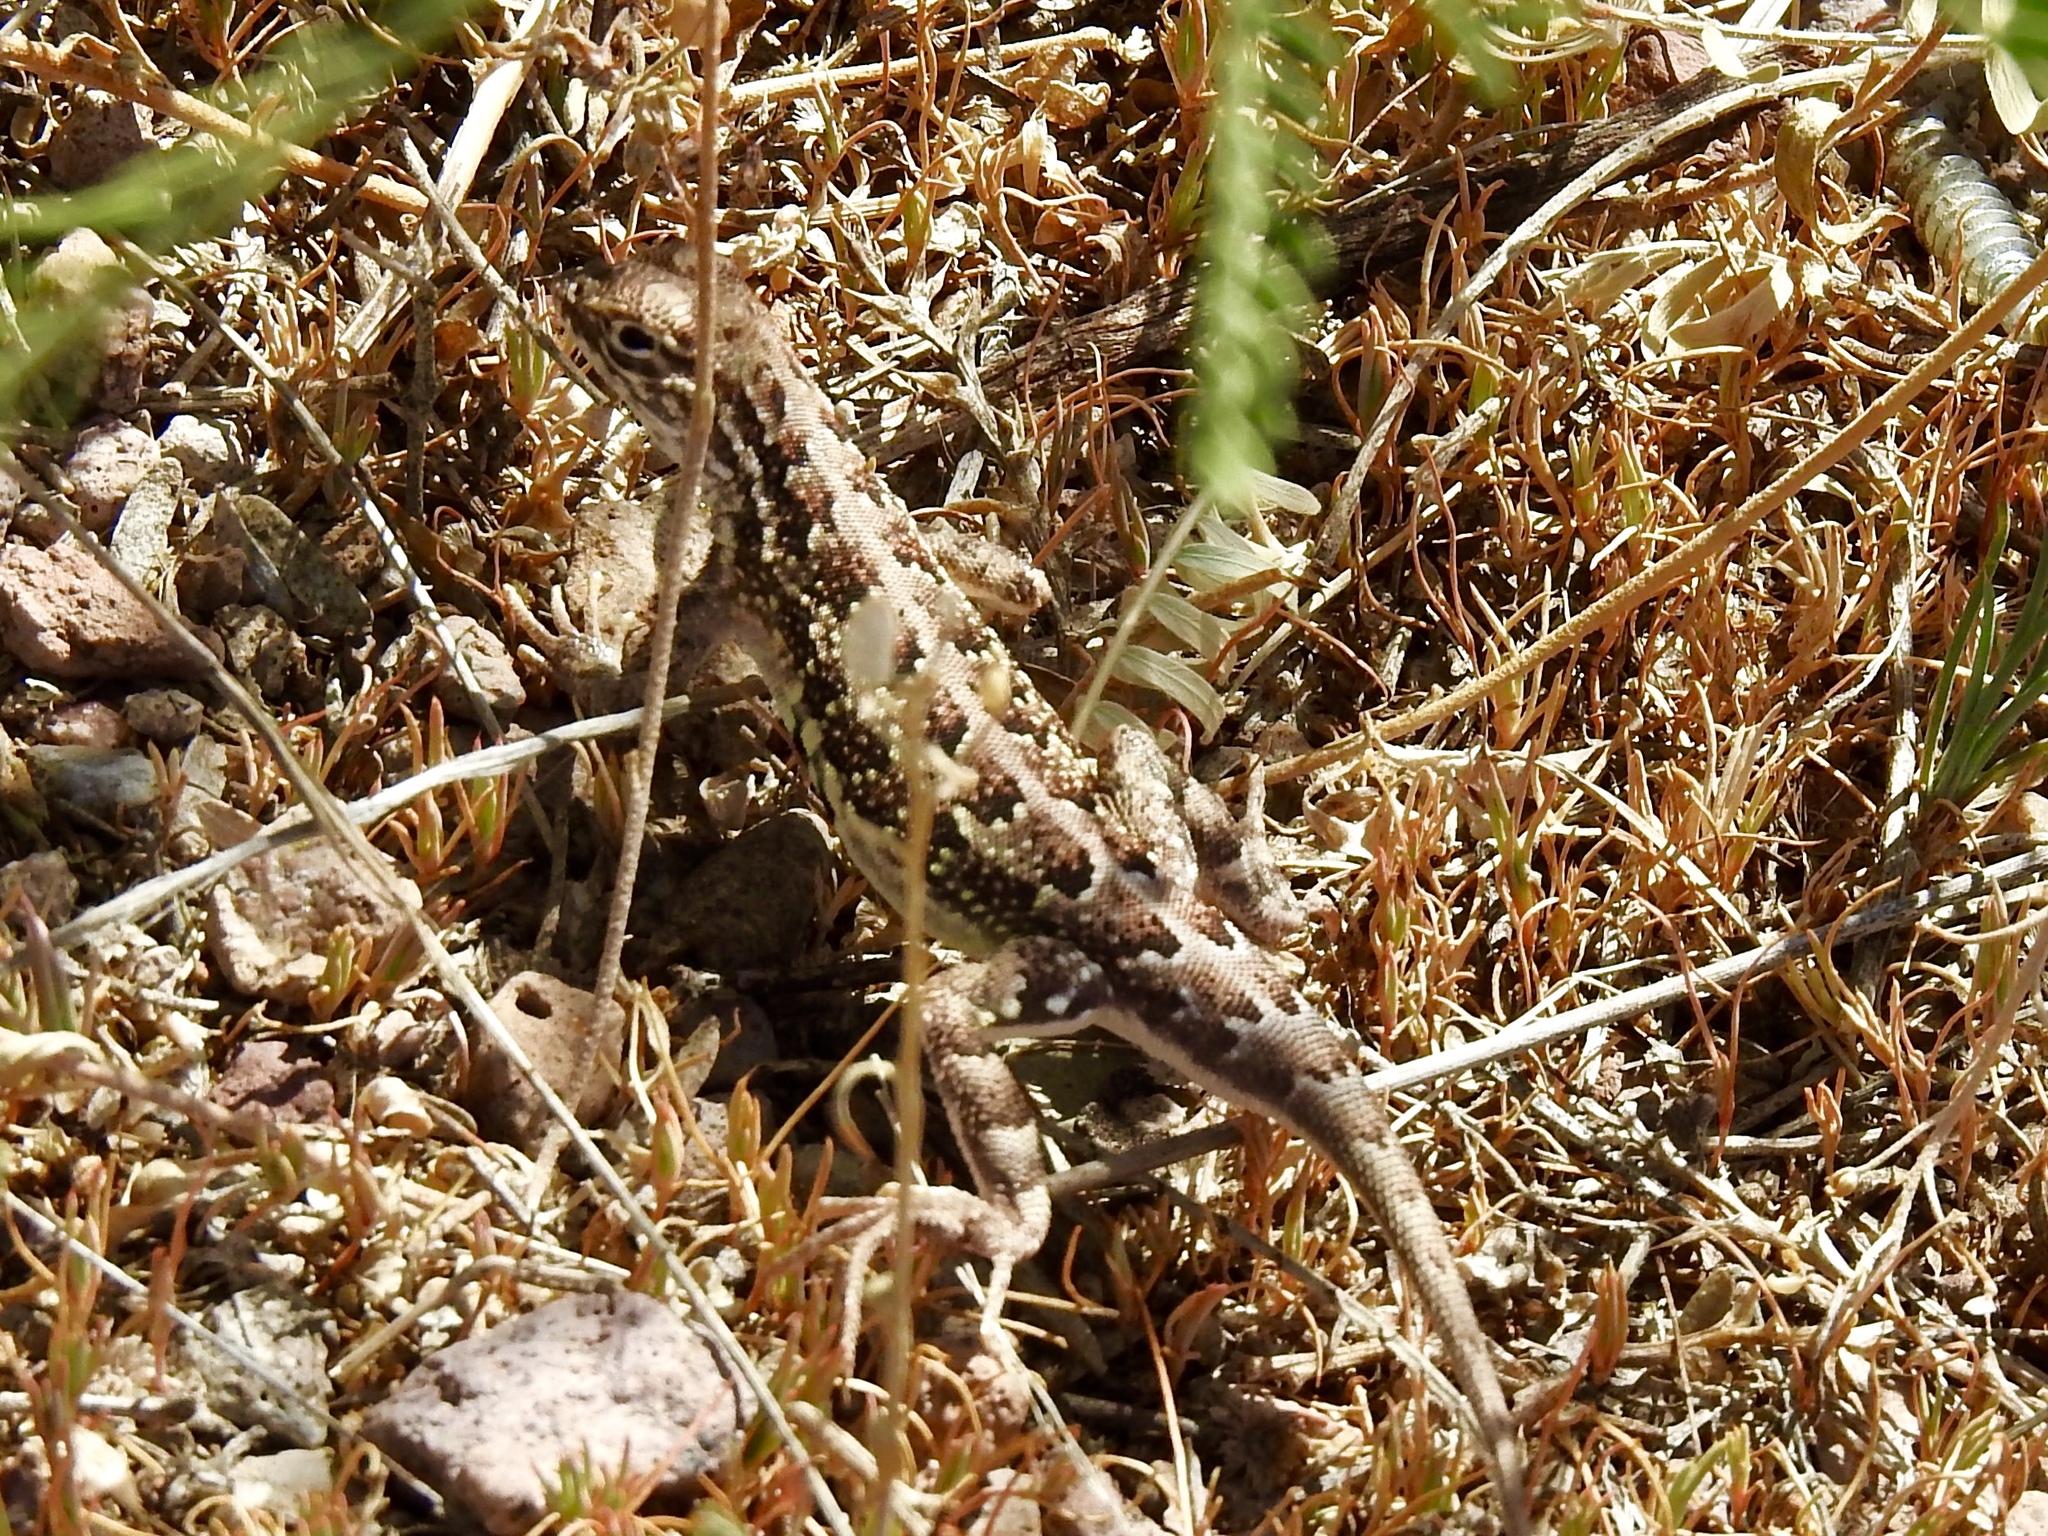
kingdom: Animalia
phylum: Chordata
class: Squamata
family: Phrynosomatidae
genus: Holbrookia
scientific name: Holbrookia maculata
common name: Lesser earless lizard
